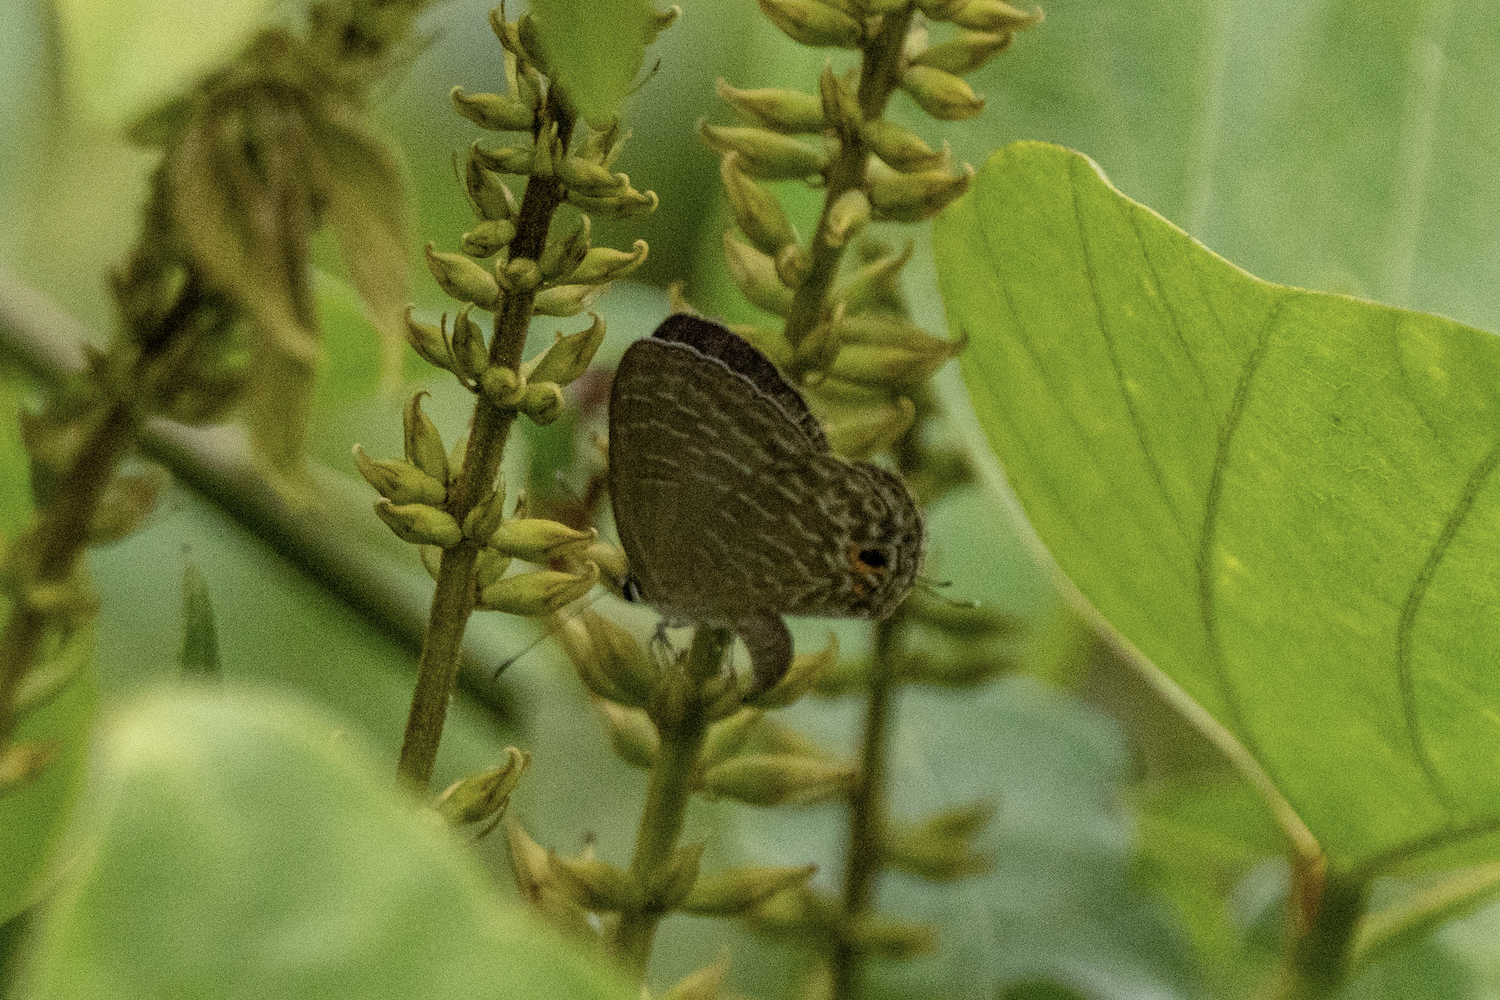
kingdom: Animalia
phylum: Arthropoda
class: Insecta
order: Lepidoptera
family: Lycaenidae
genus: Jamides
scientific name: Jamides bochus
